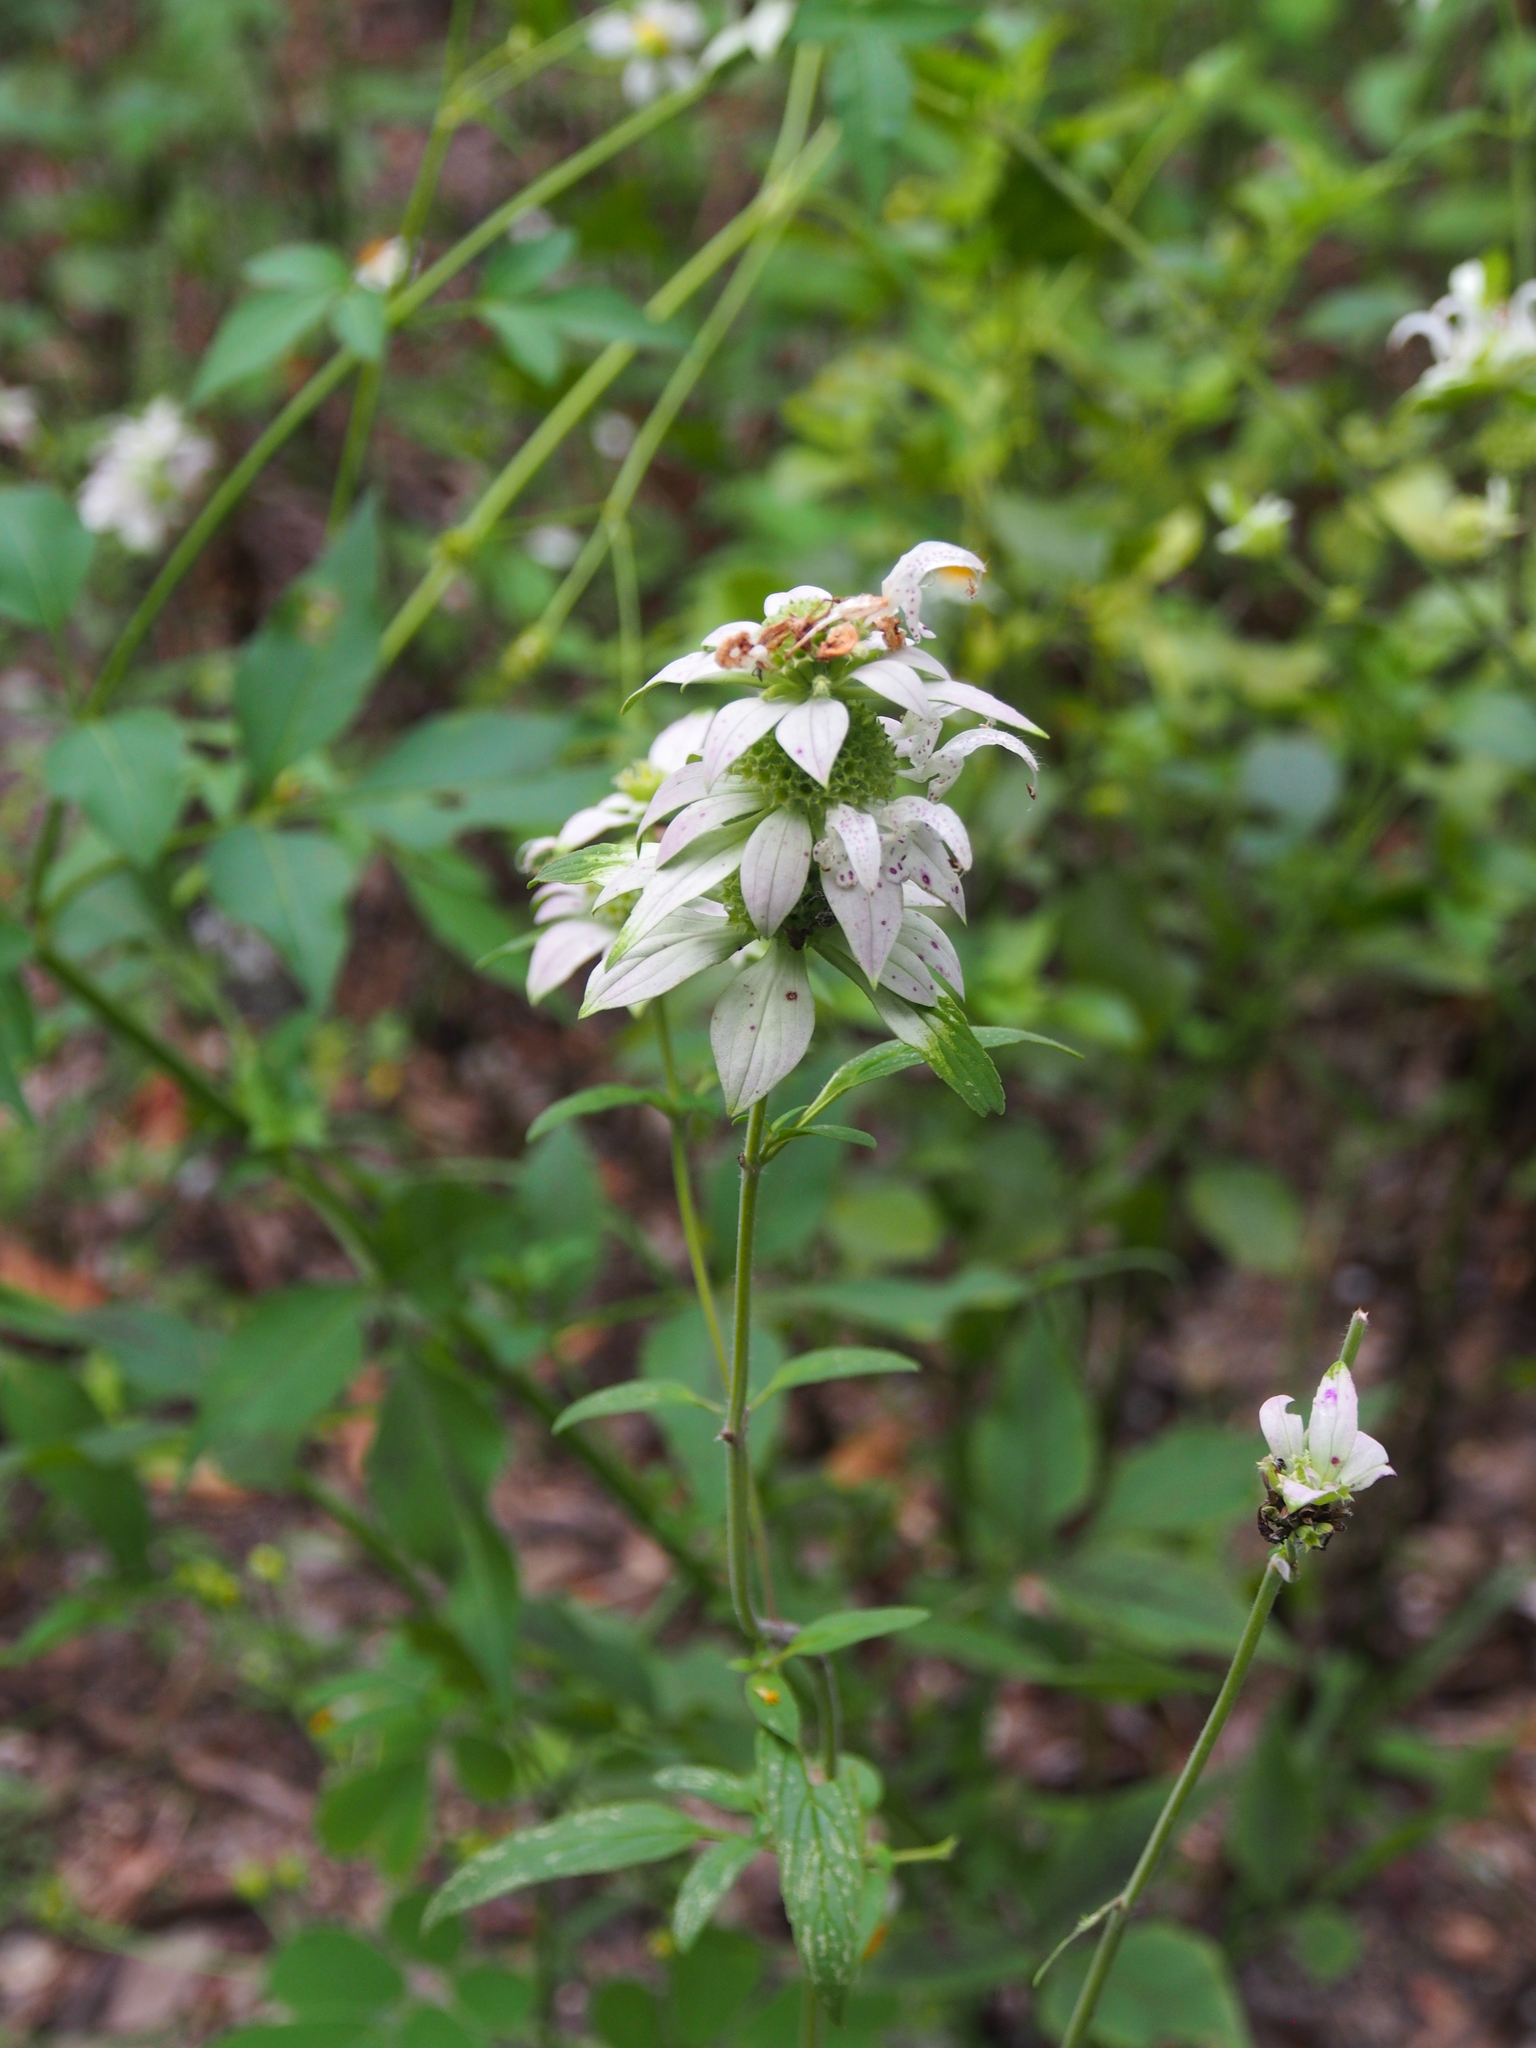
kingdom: Plantae
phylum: Tracheophyta
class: Magnoliopsida
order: Lamiales
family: Lamiaceae
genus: Monarda
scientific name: Monarda punctata
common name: Dotted monarda
